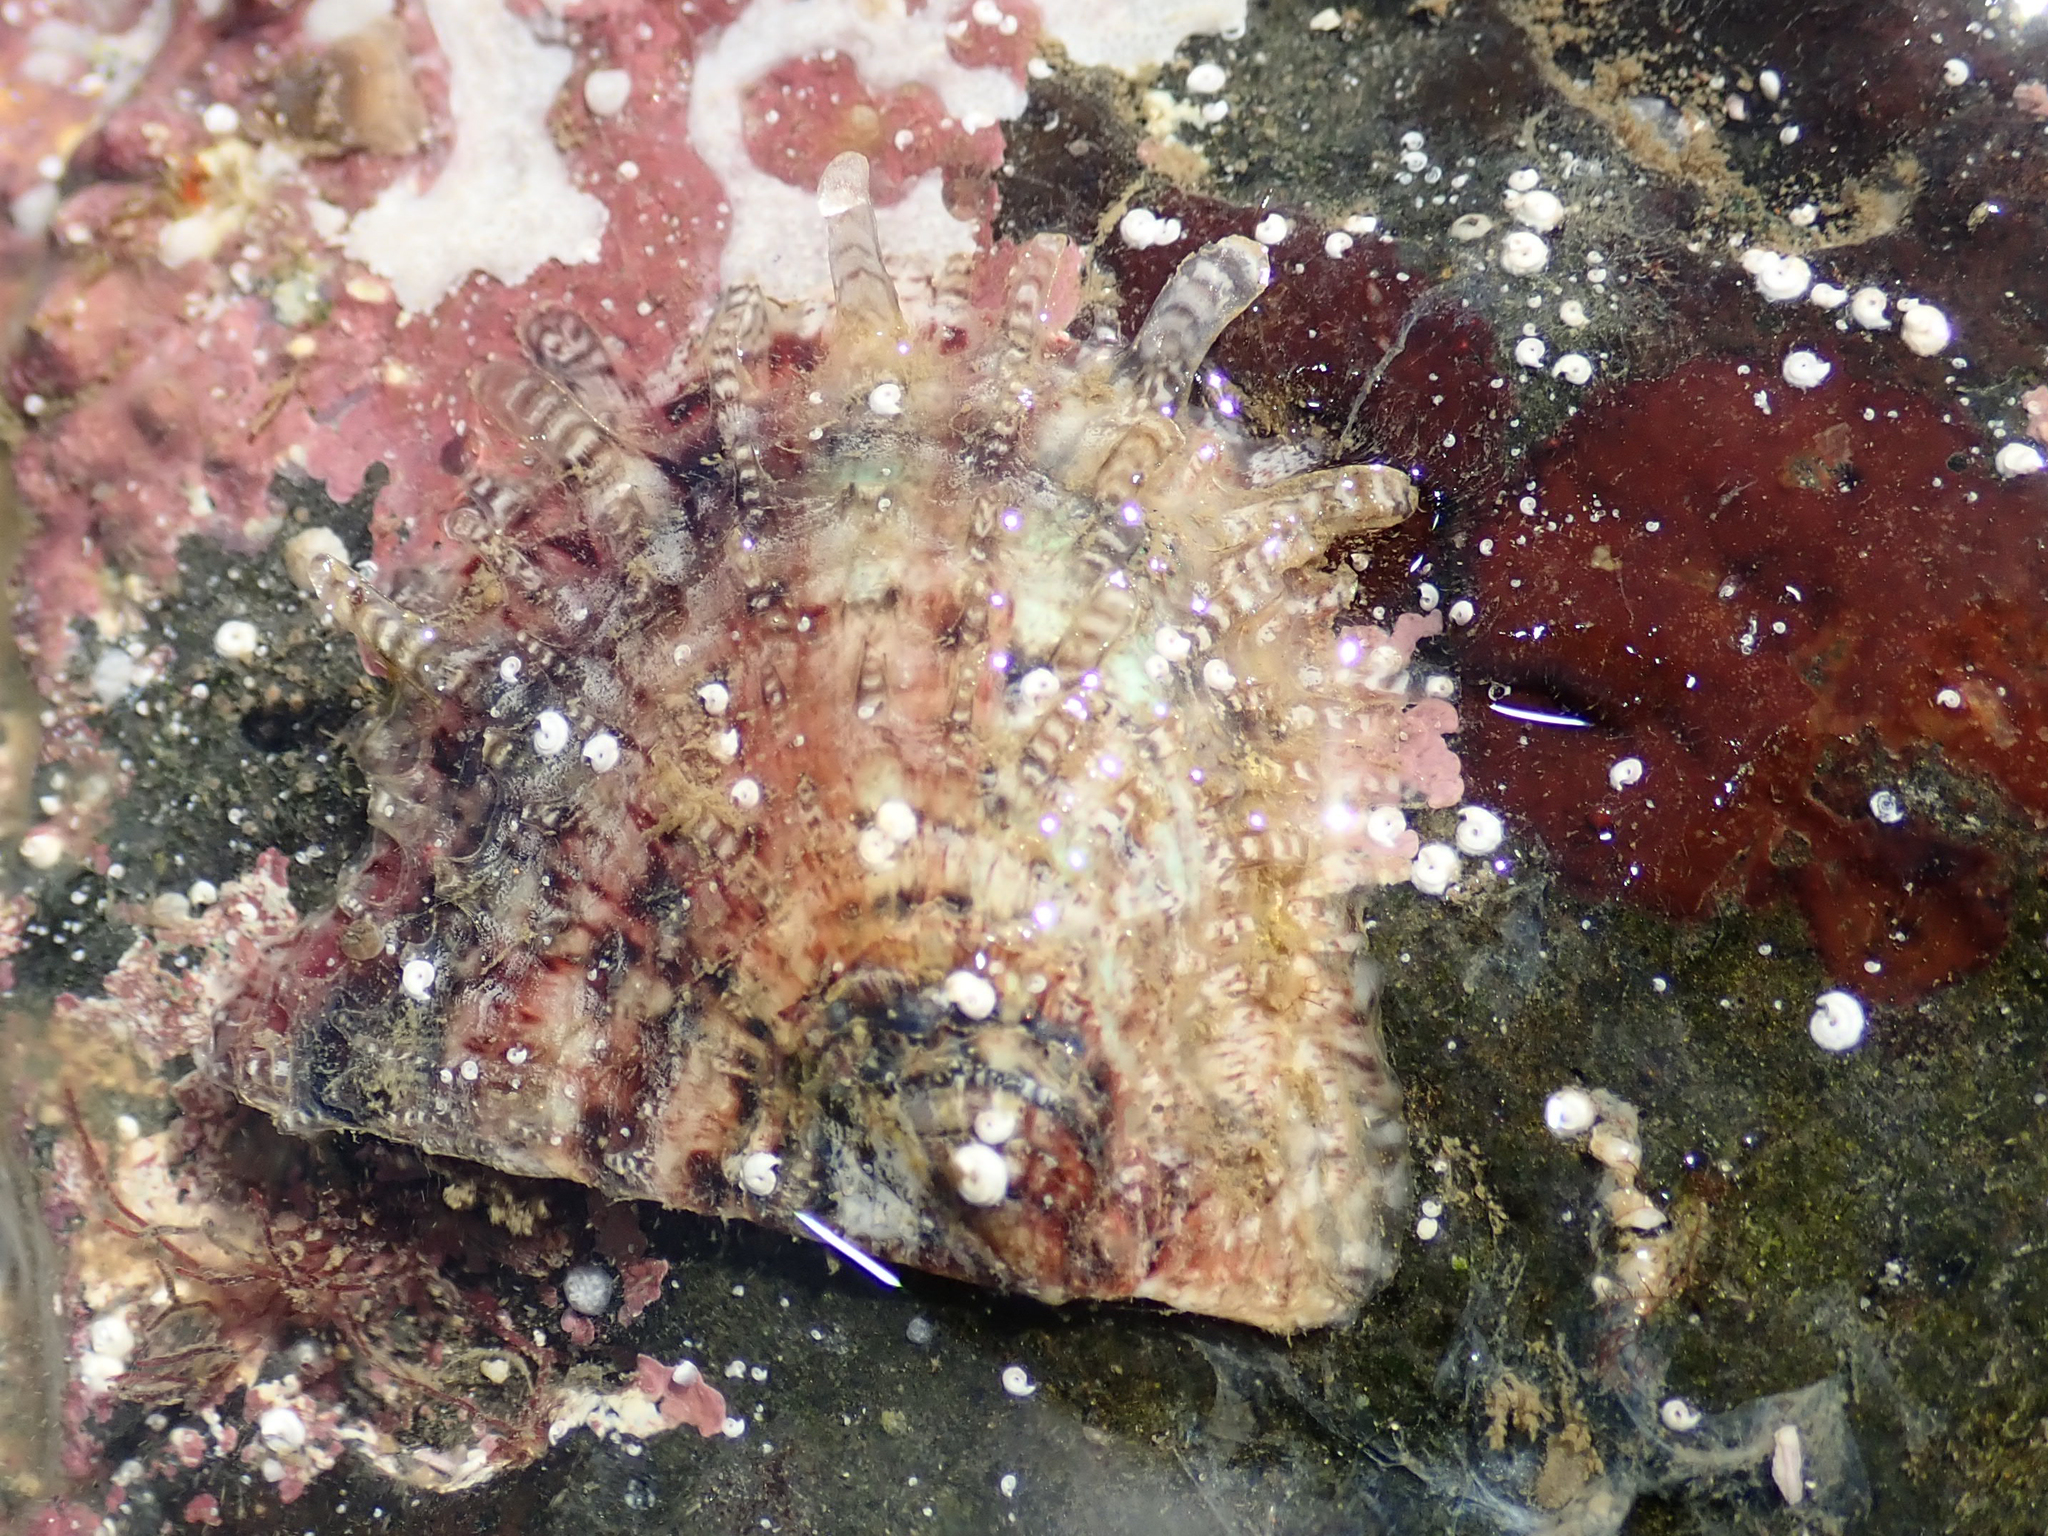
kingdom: Animalia
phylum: Mollusca
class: Bivalvia
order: Ostreida
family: Margaritidae
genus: Pinctada
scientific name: Pinctada radiata
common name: Rayed pearl oyster
